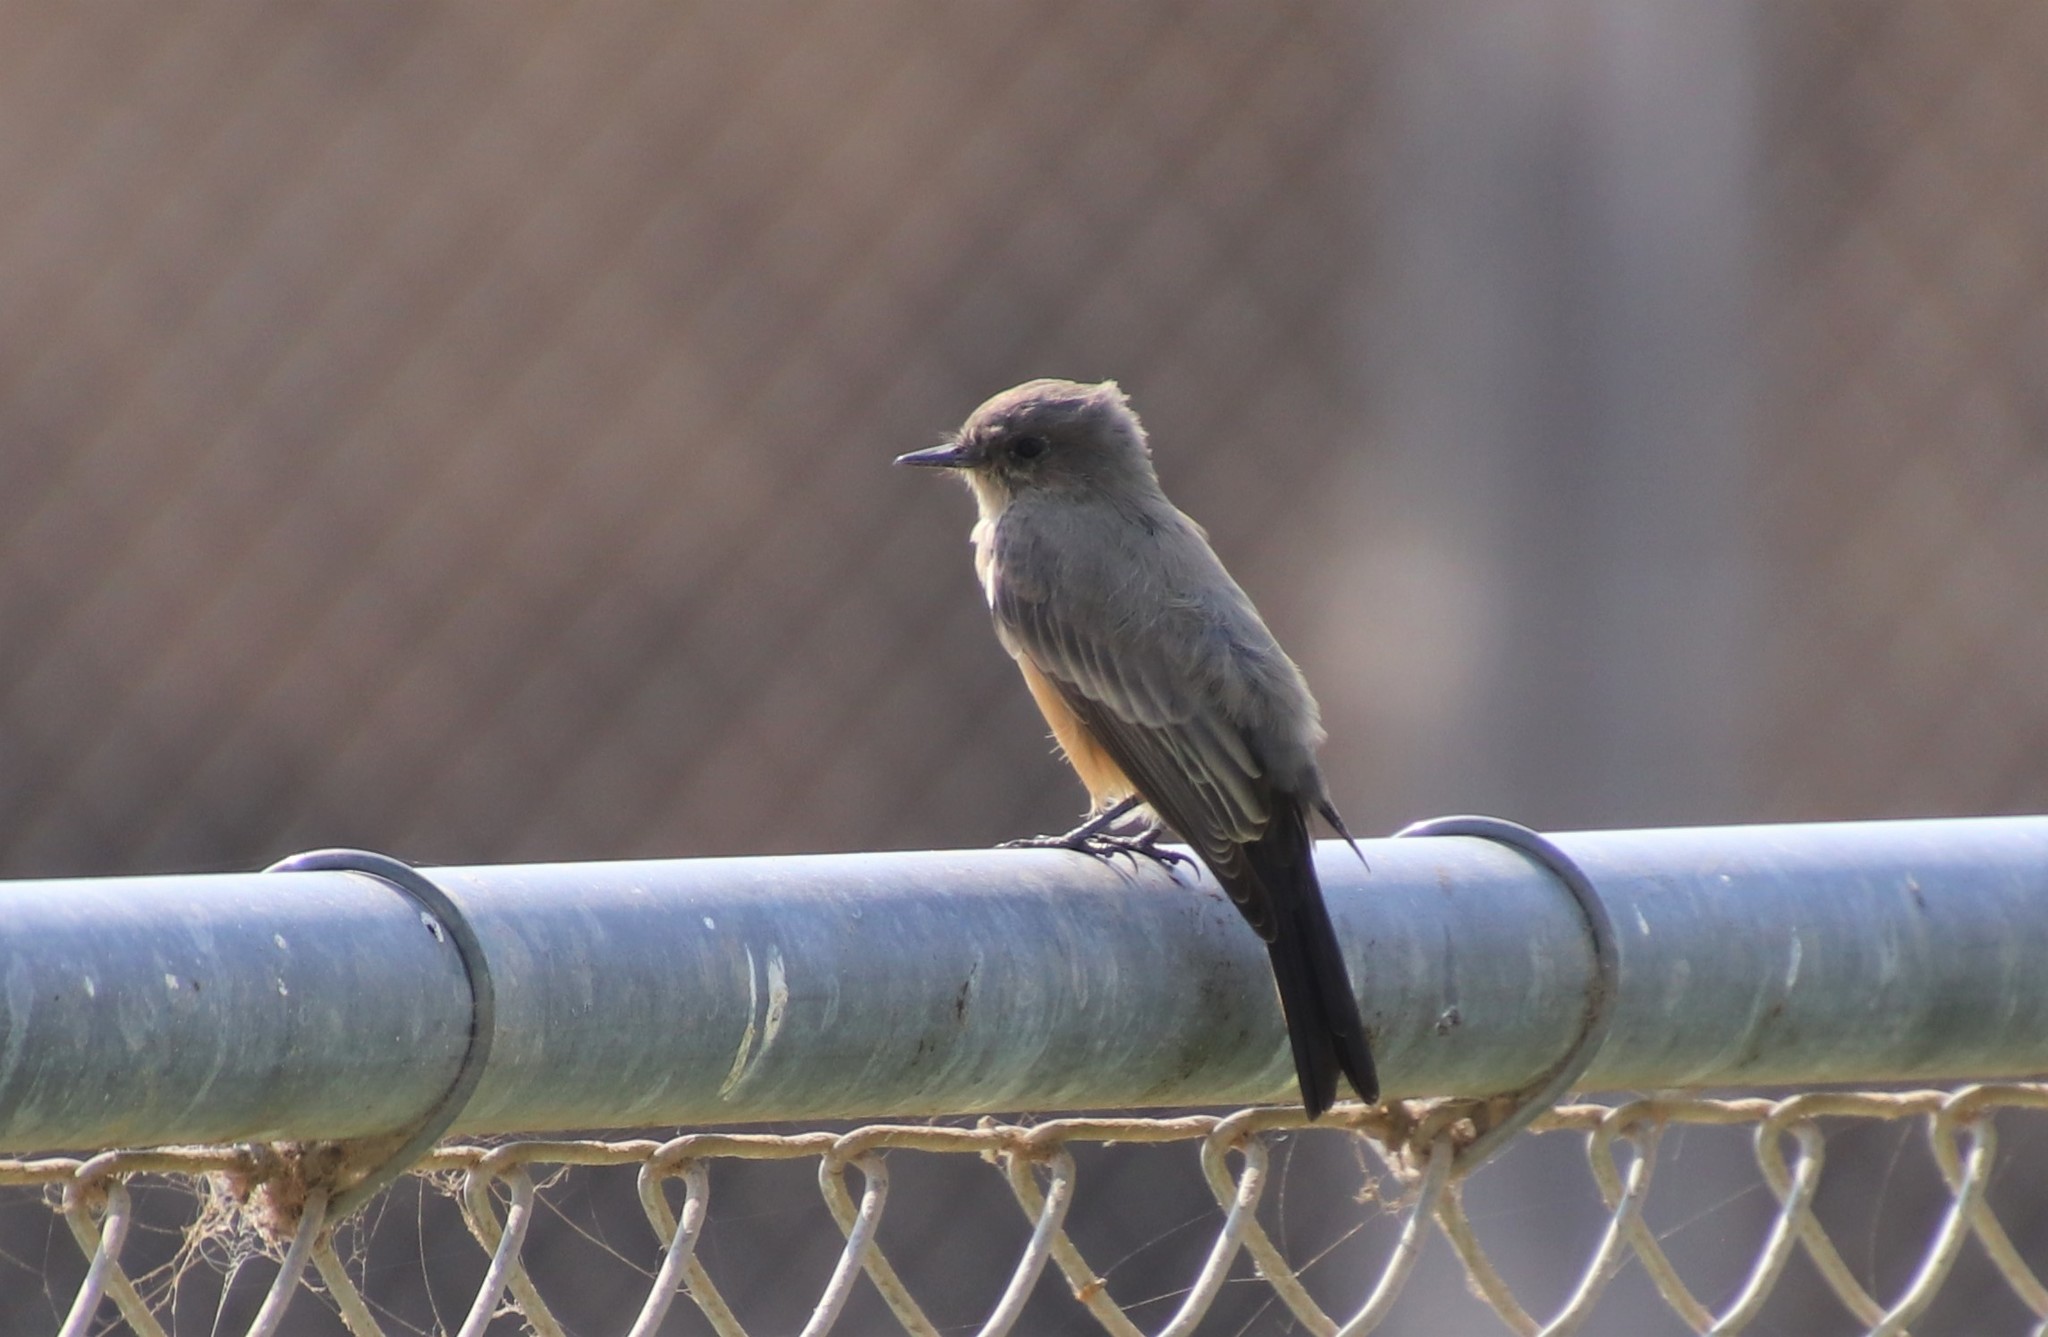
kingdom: Animalia
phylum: Chordata
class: Aves
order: Passeriformes
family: Tyrannidae
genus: Sayornis
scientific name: Sayornis saya
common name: Say's phoebe
